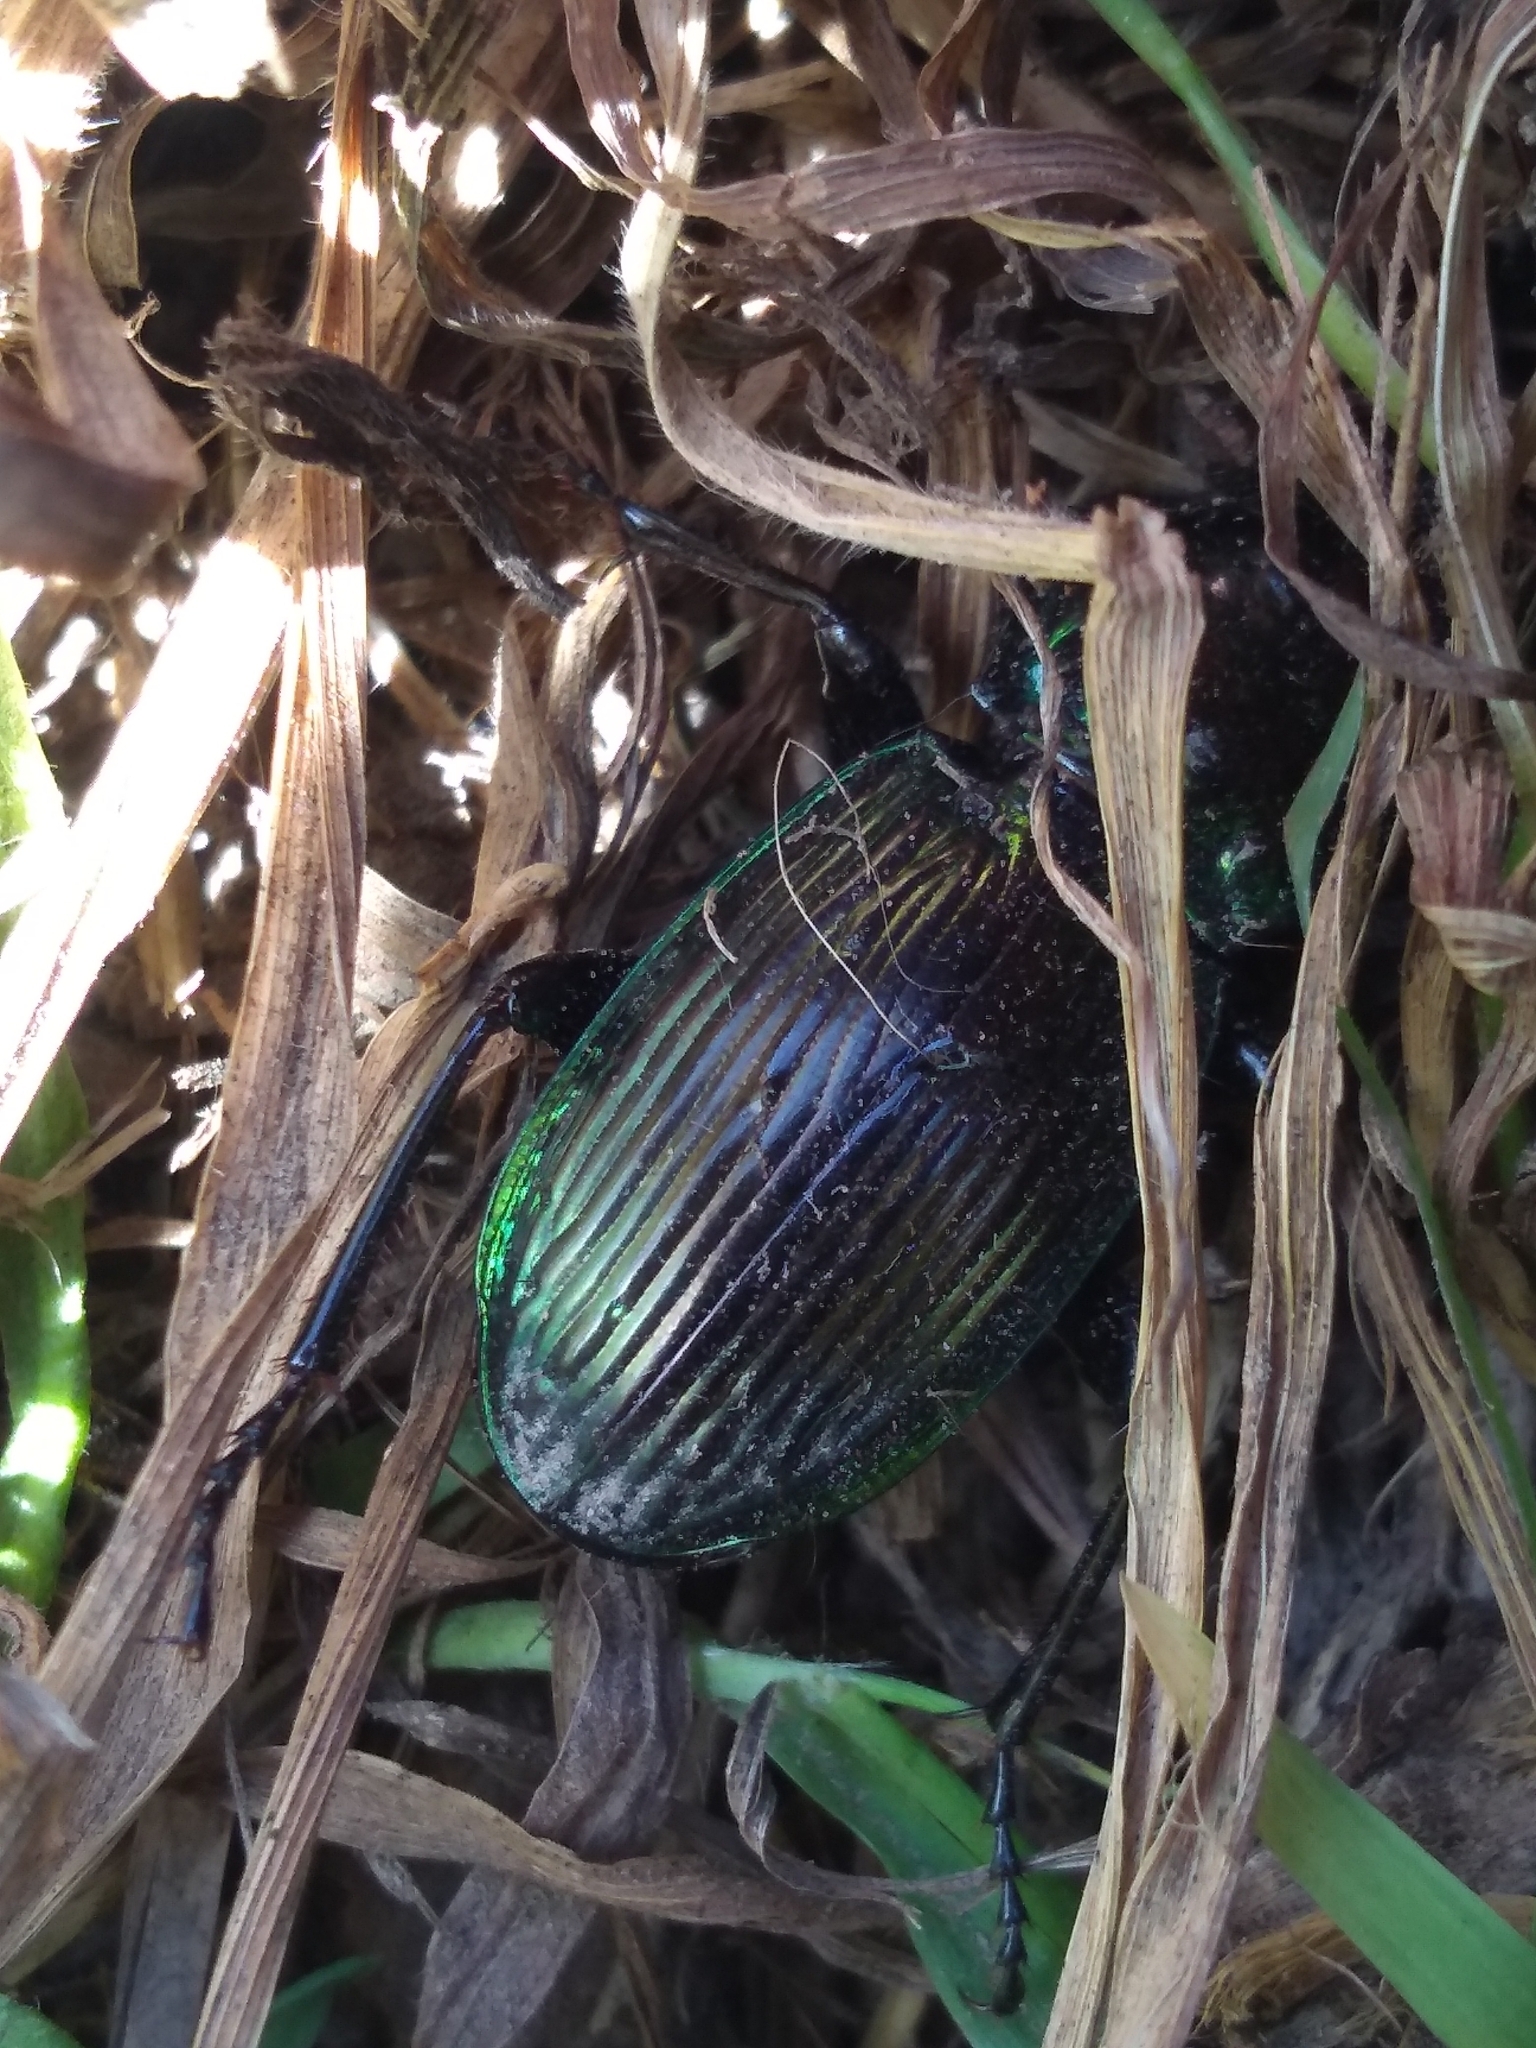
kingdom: Animalia
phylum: Arthropoda
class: Insecta
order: Coleoptera
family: Carabidae
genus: Megadromus
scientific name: Megadromus antarcticus
